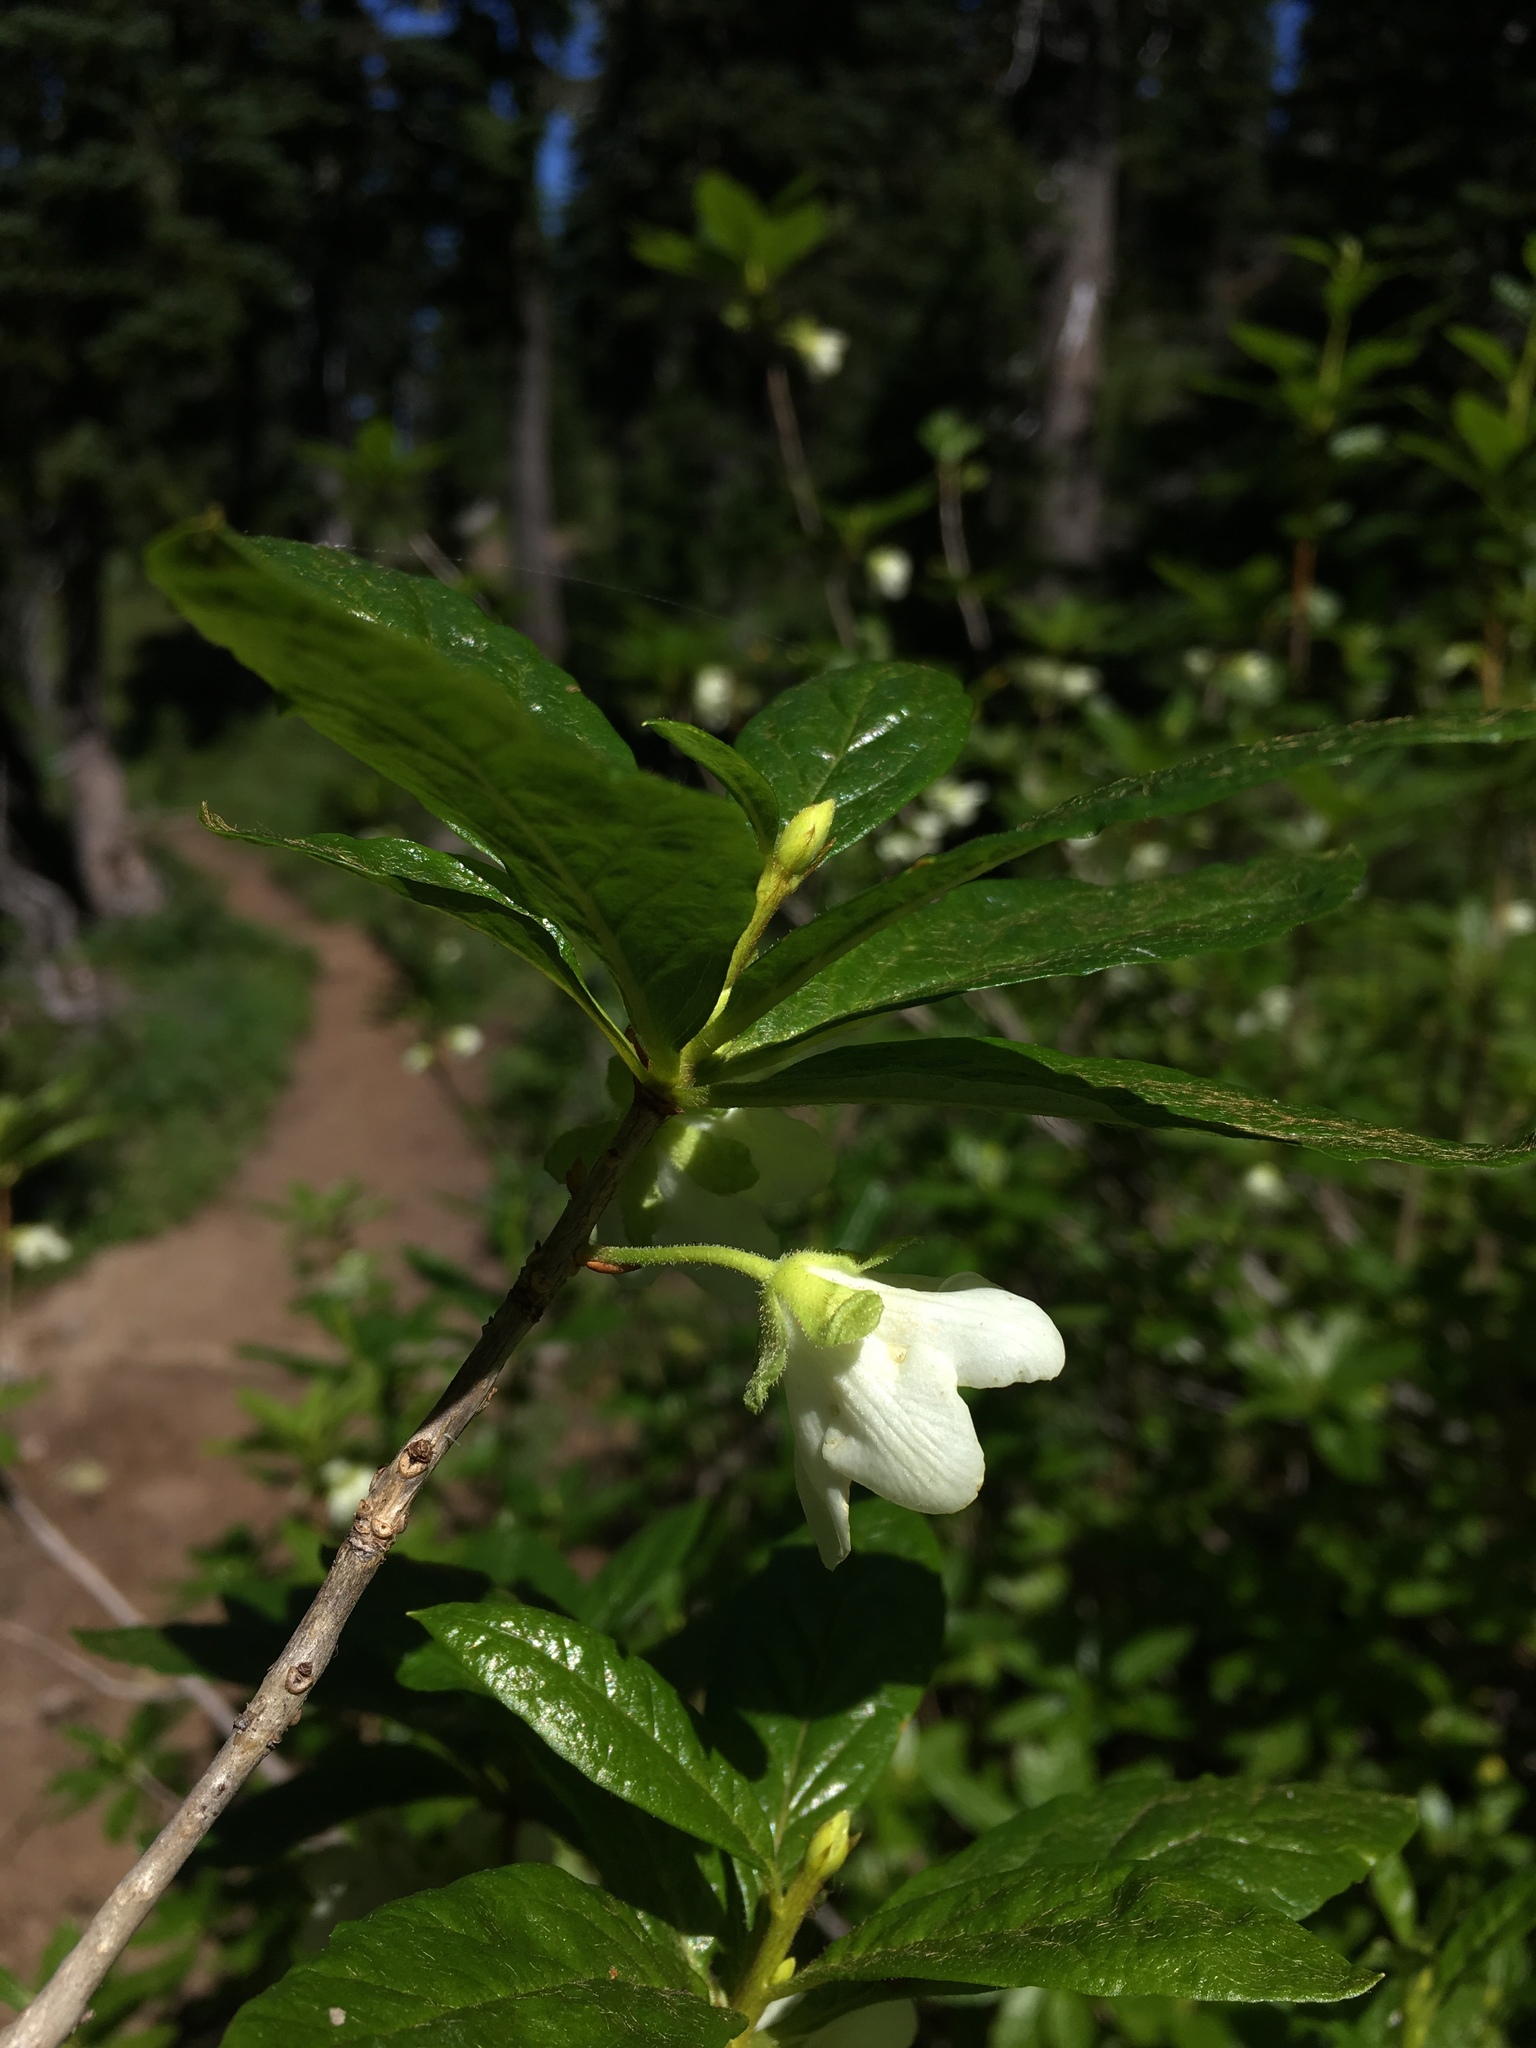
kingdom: Plantae
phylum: Tracheophyta
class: Magnoliopsida
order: Ericales
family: Ericaceae
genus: Rhododendron
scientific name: Rhododendron albiflorum
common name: White rhododendron
